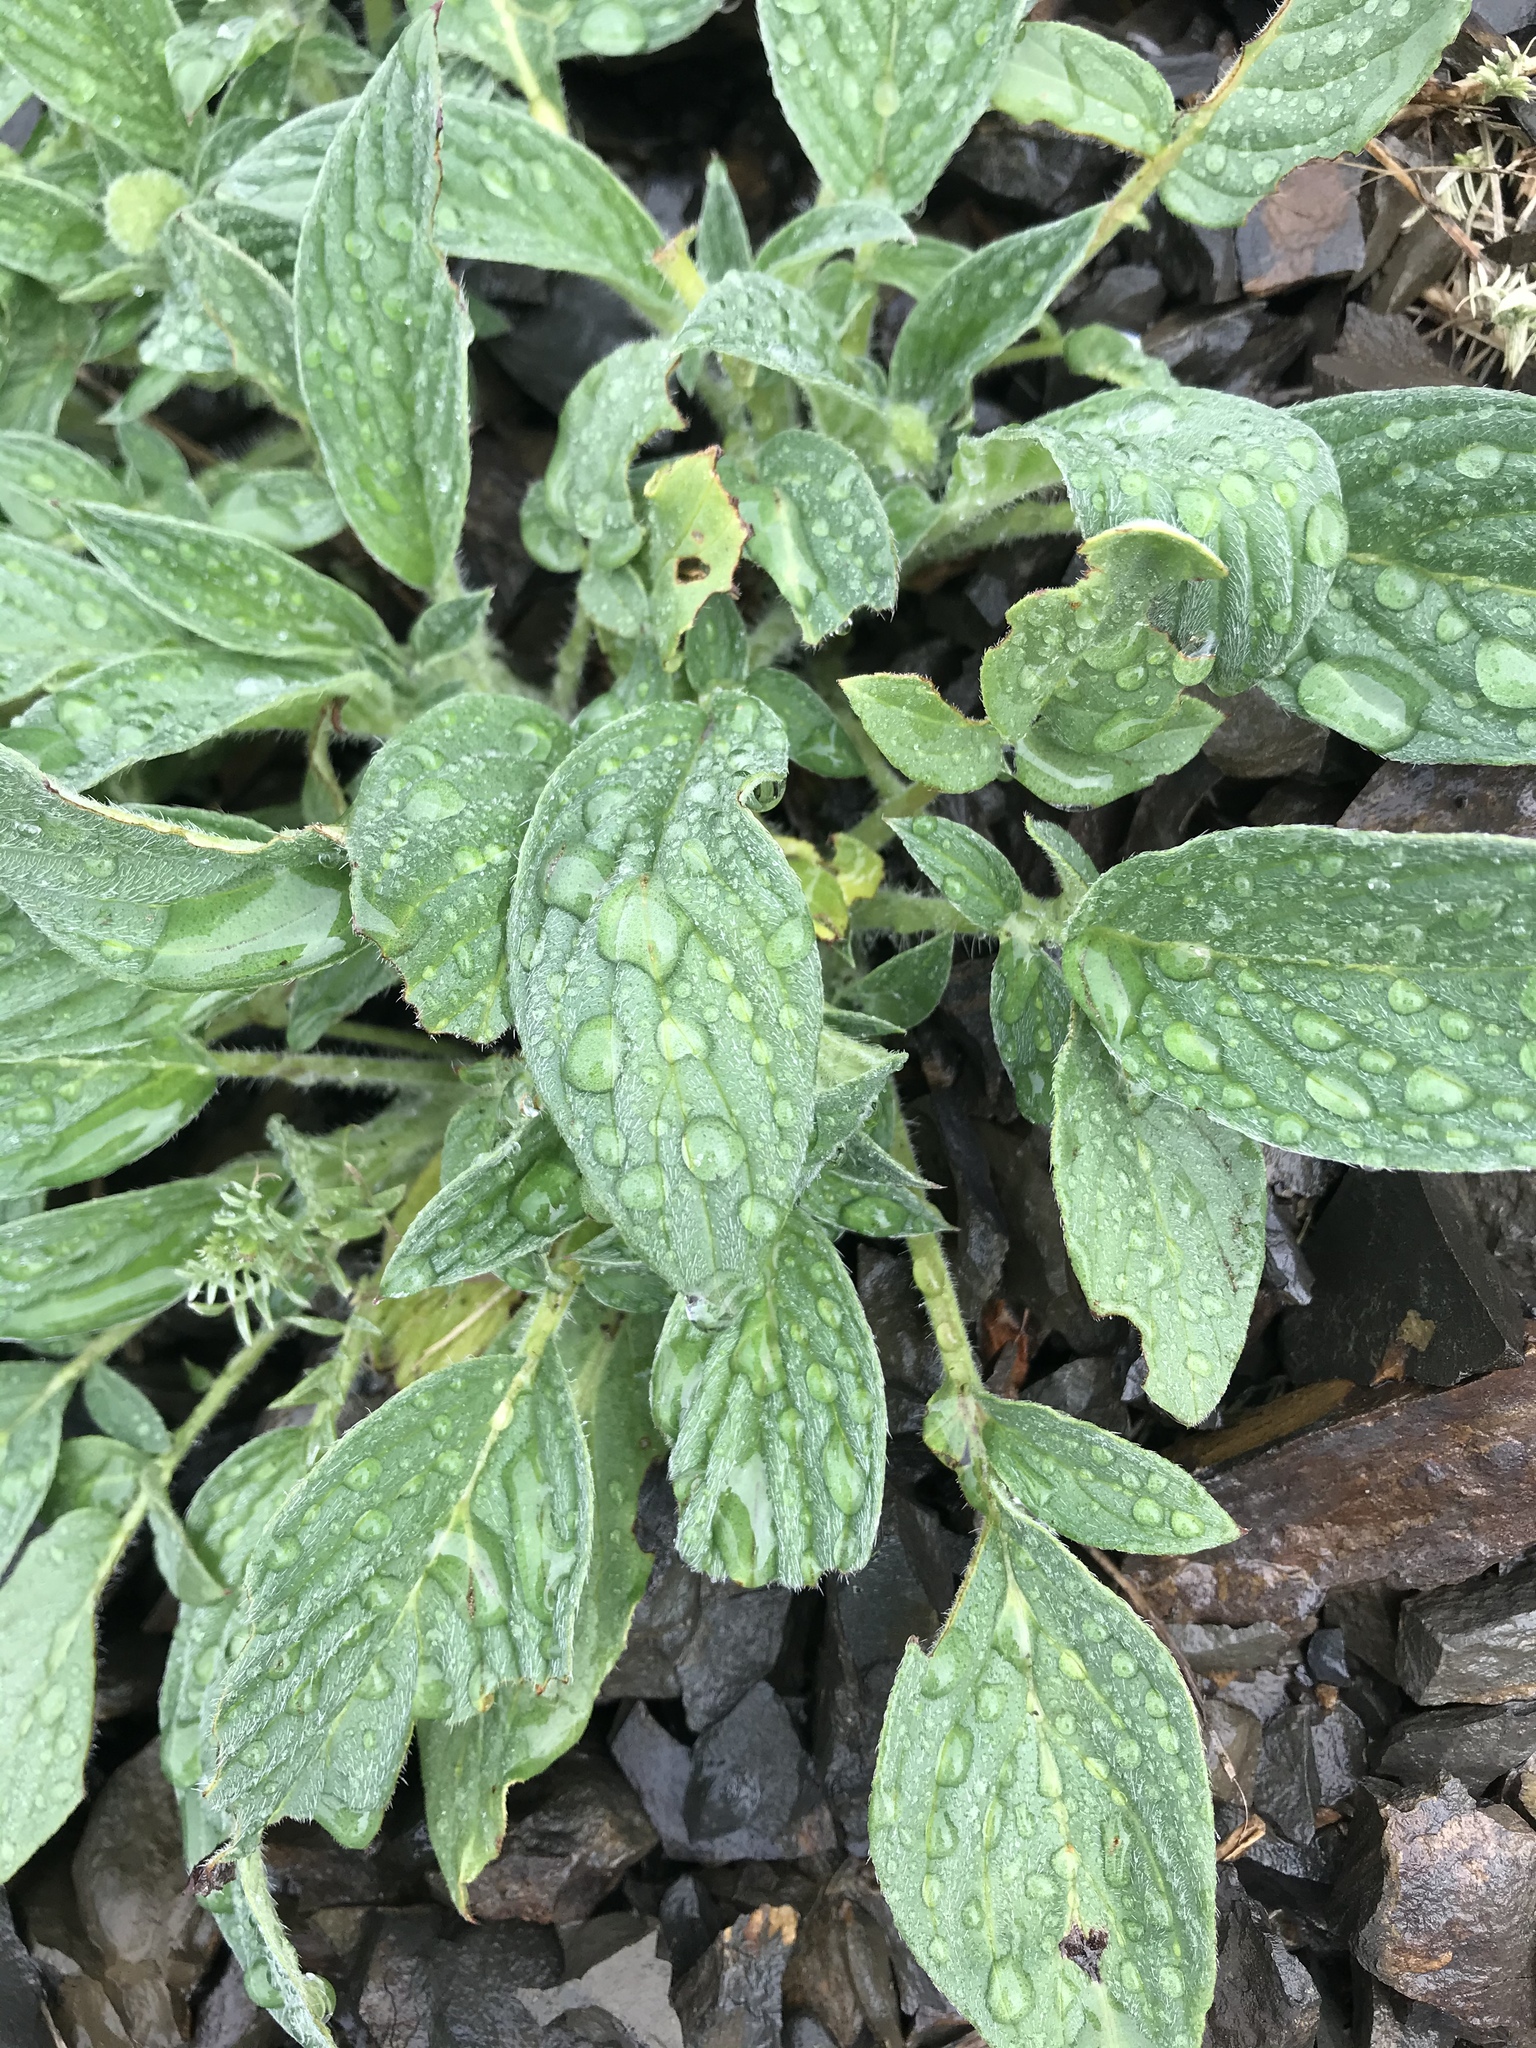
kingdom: Plantae
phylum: Tracheophyta
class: Magnoliopsida
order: Boraginales
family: Hydrophyllaceae
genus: Phacelia
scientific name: Phacelia californica
